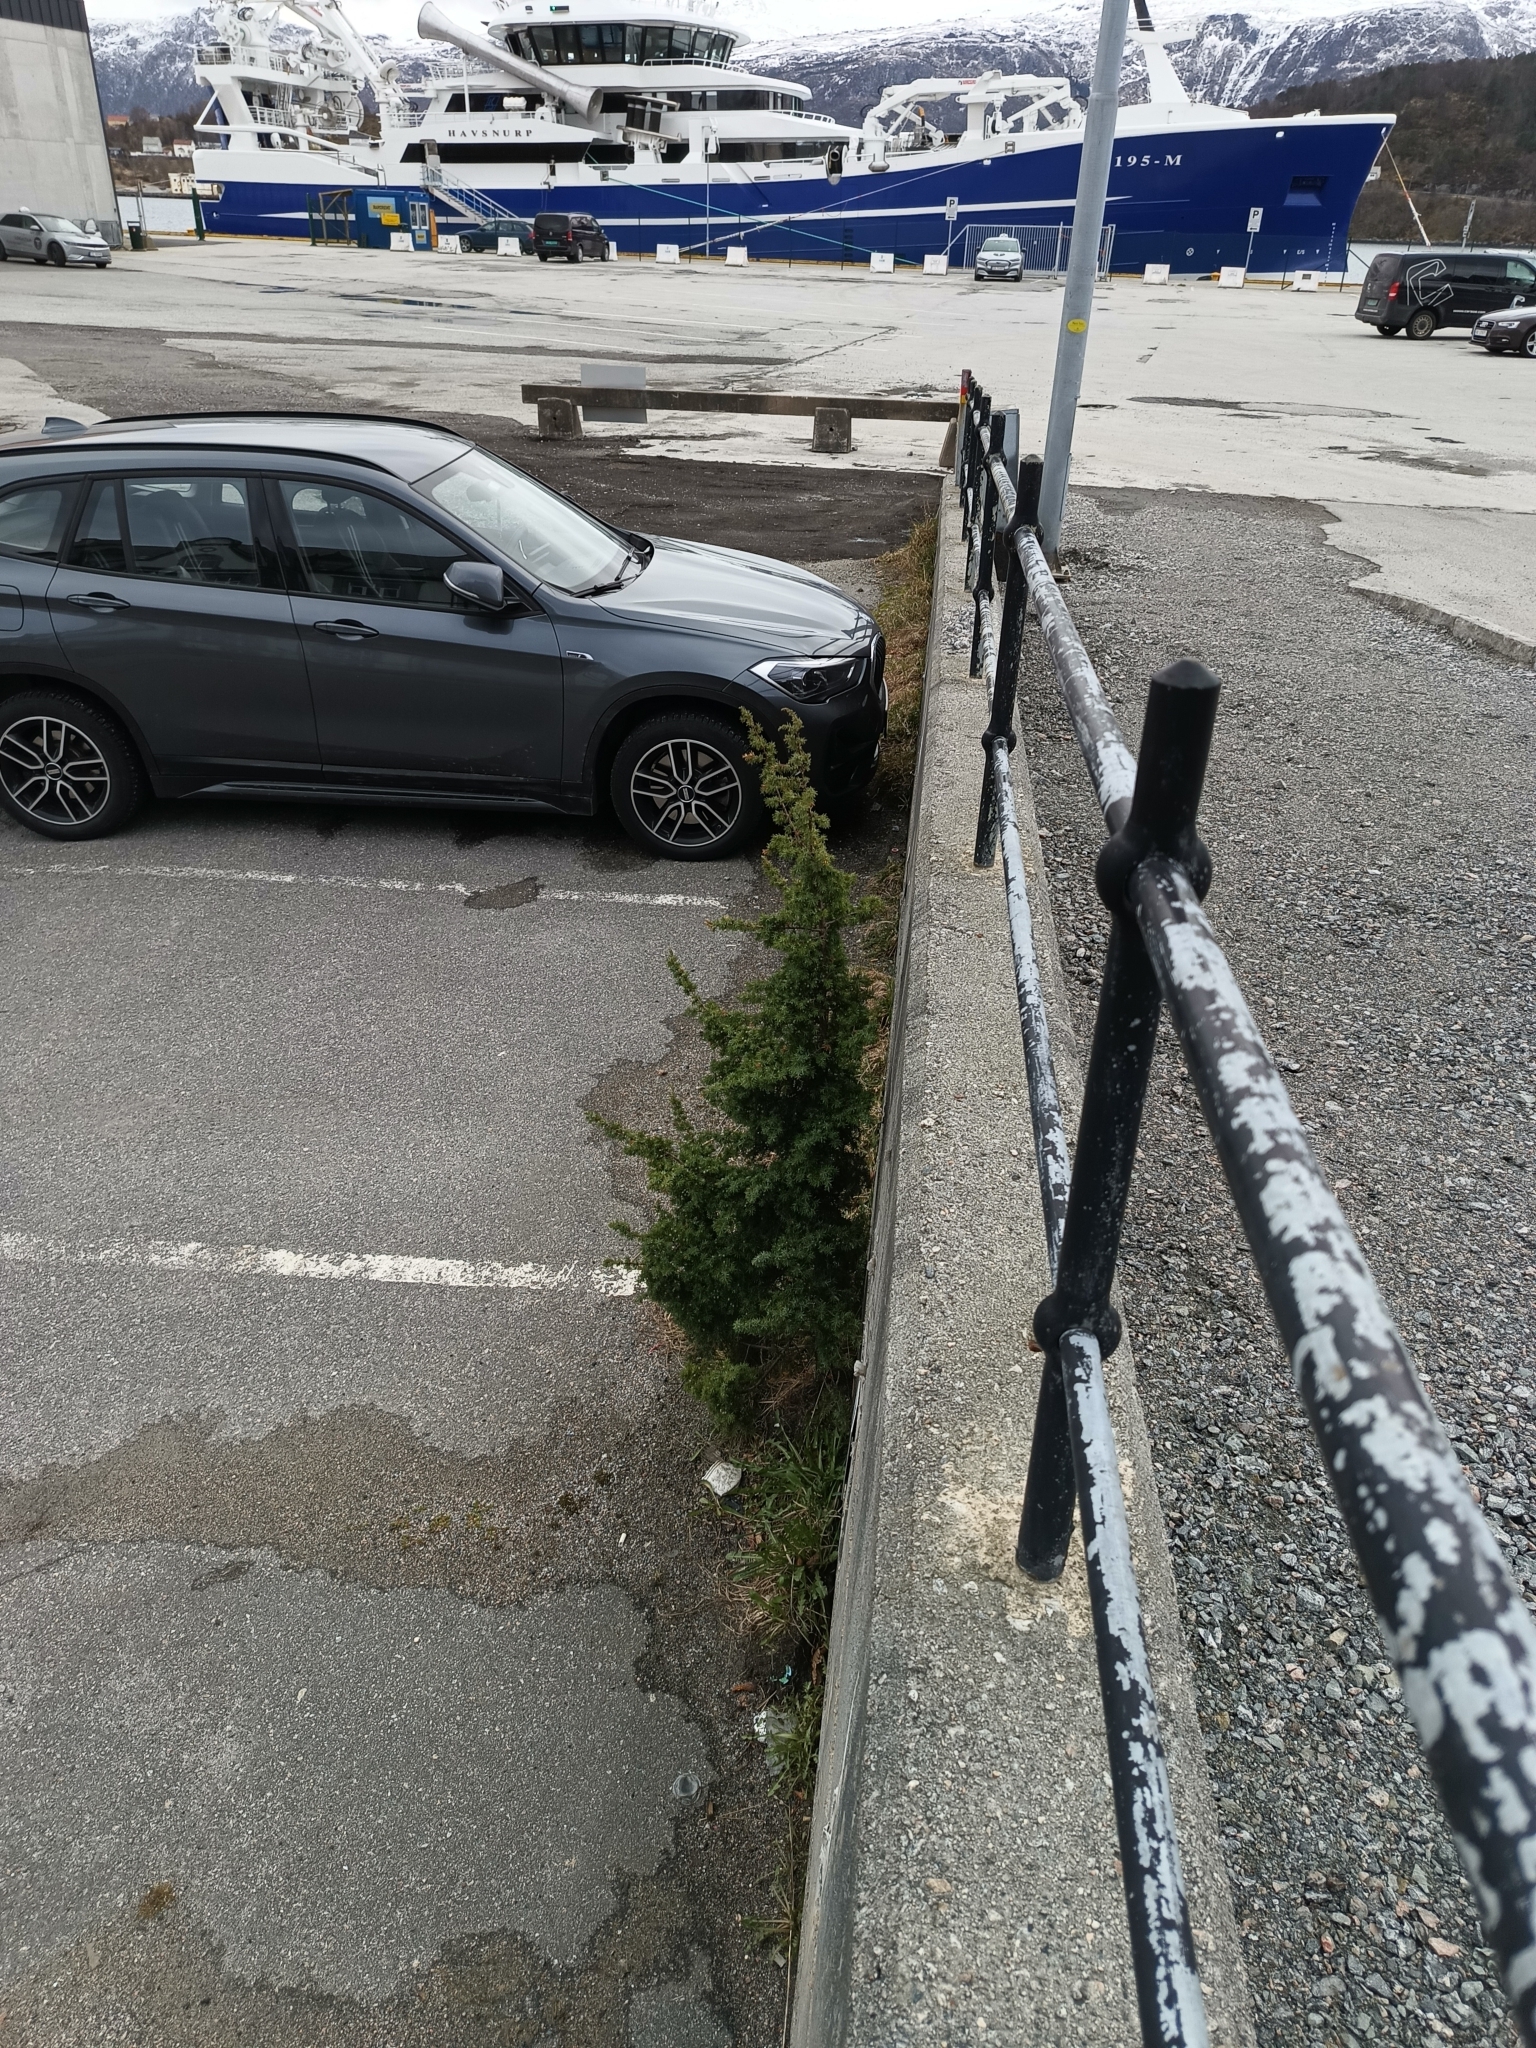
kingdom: Plantae
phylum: Tracheophyta
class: Pinopsida
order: Pinales
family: Cupressaceae
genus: Juniperus
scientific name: Juniperus communis
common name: Common juniper
